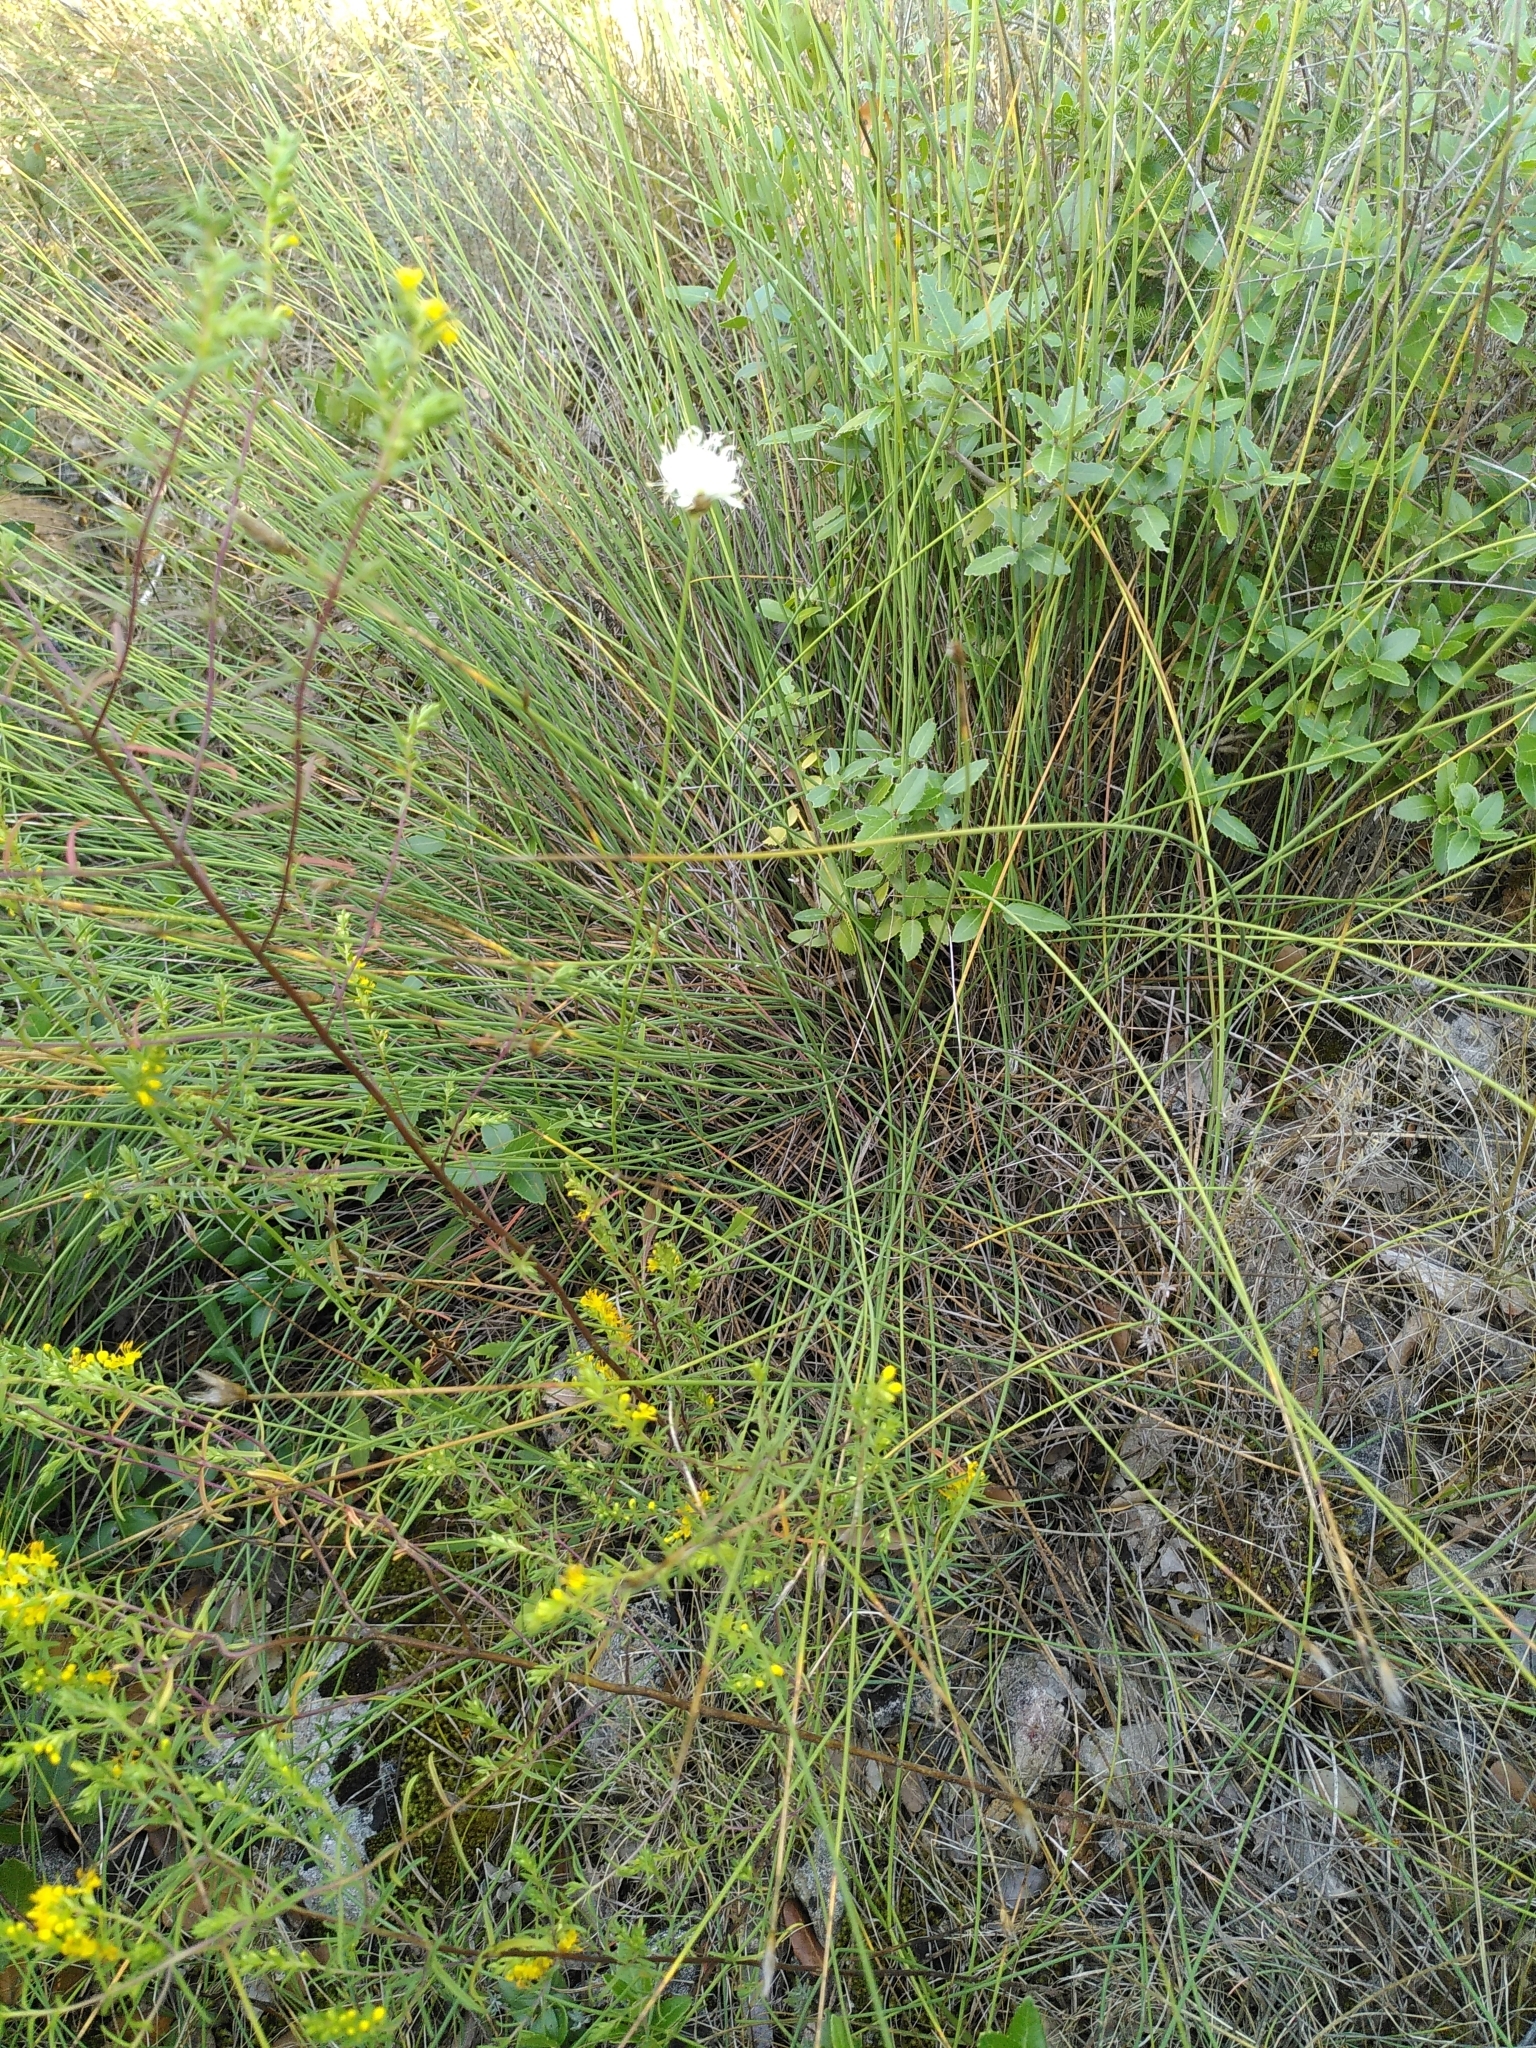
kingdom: Plantae
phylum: Tracheophyta
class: Magnoliopsida
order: Dipsacales
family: Caprifoliaceae
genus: Cephalaria
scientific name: Cephalaria leucantha
